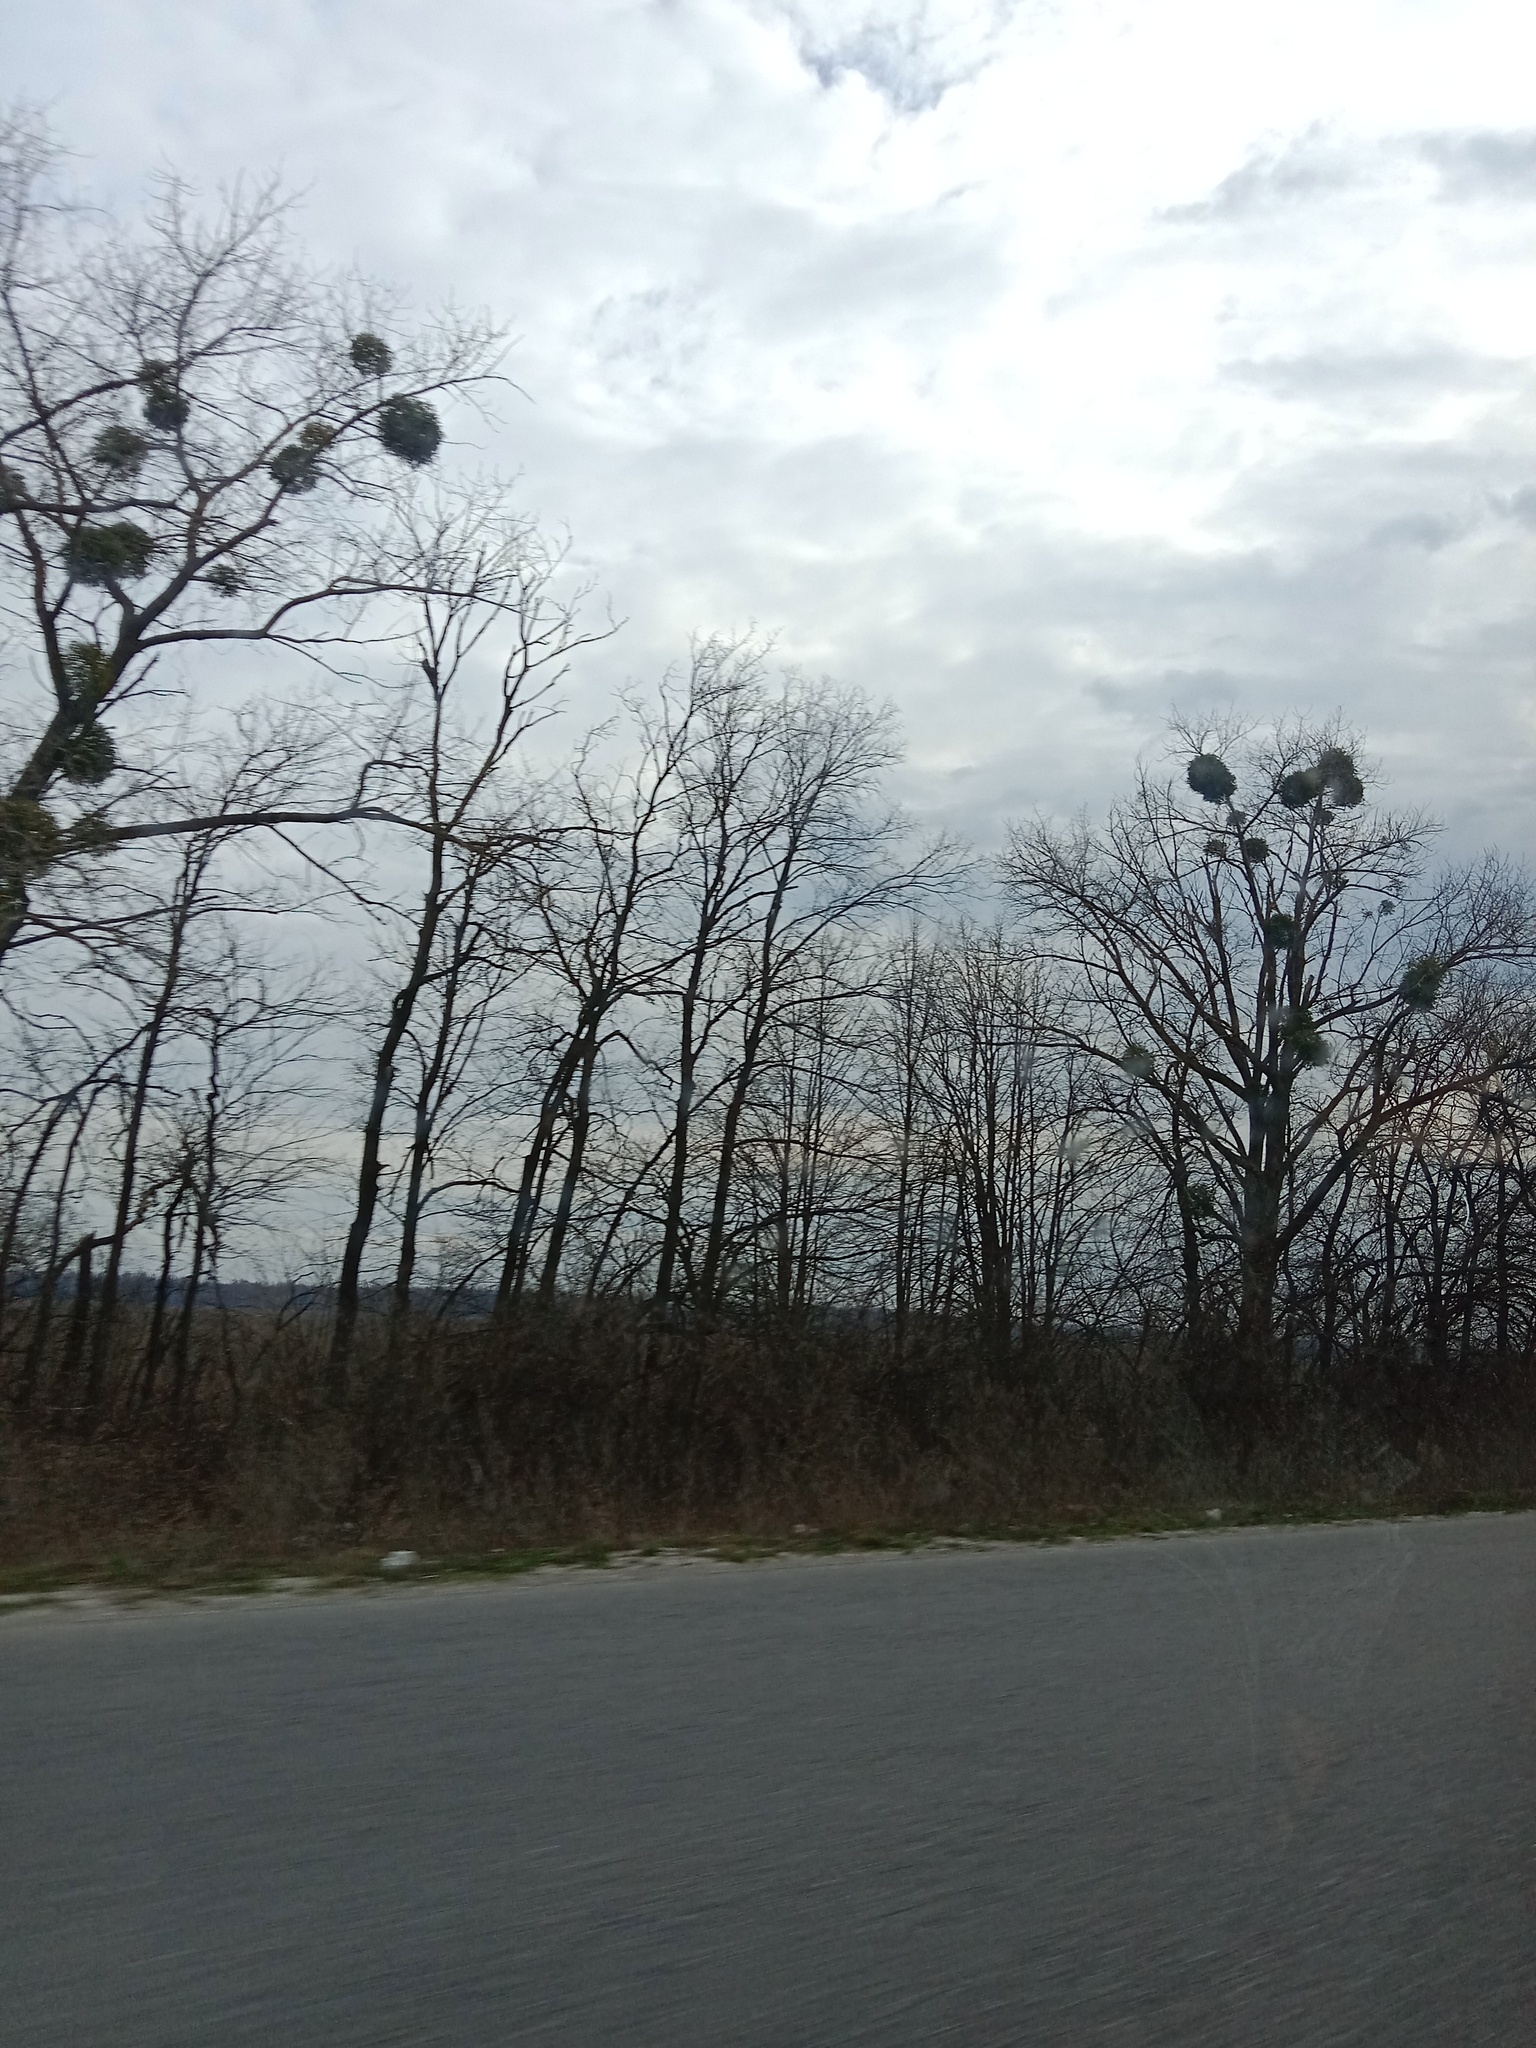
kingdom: Plantae
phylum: Tracheophyta
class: Magnoliopsida
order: Santalales
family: Viscaceae
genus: Viscum
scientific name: Viscum album
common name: Mistletoe
